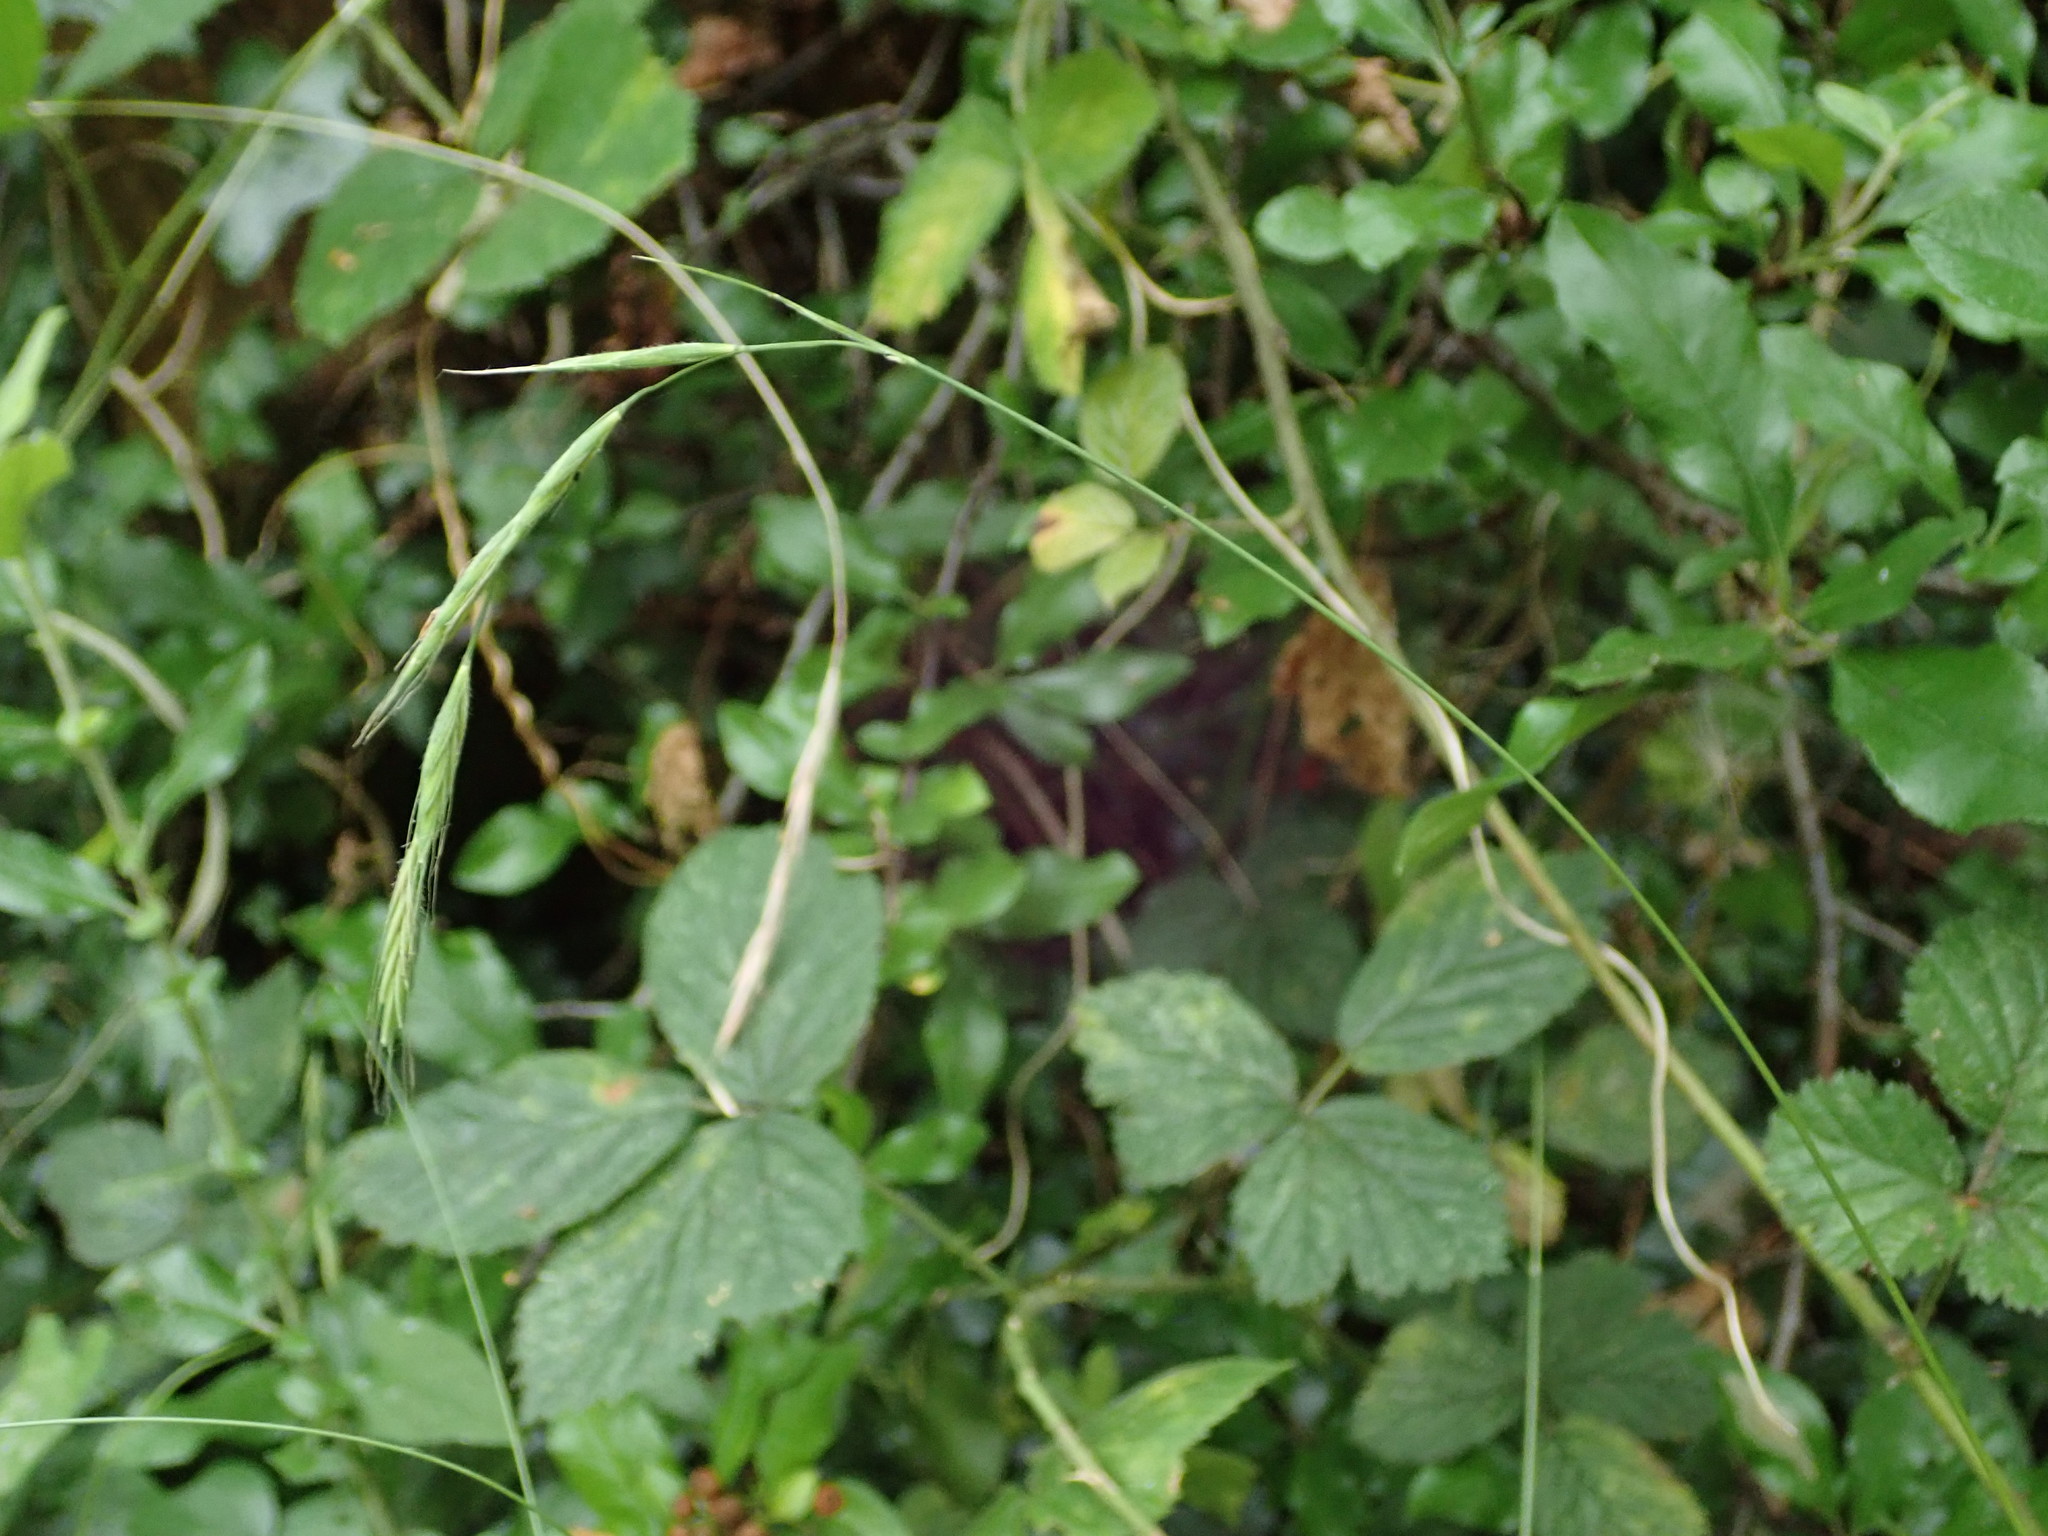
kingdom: Plantae
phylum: Tracheophyta
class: Liliopsida
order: Poales
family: Poaceae
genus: Brachypodium
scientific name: Brachypodium sylvaticum
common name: False-brome
